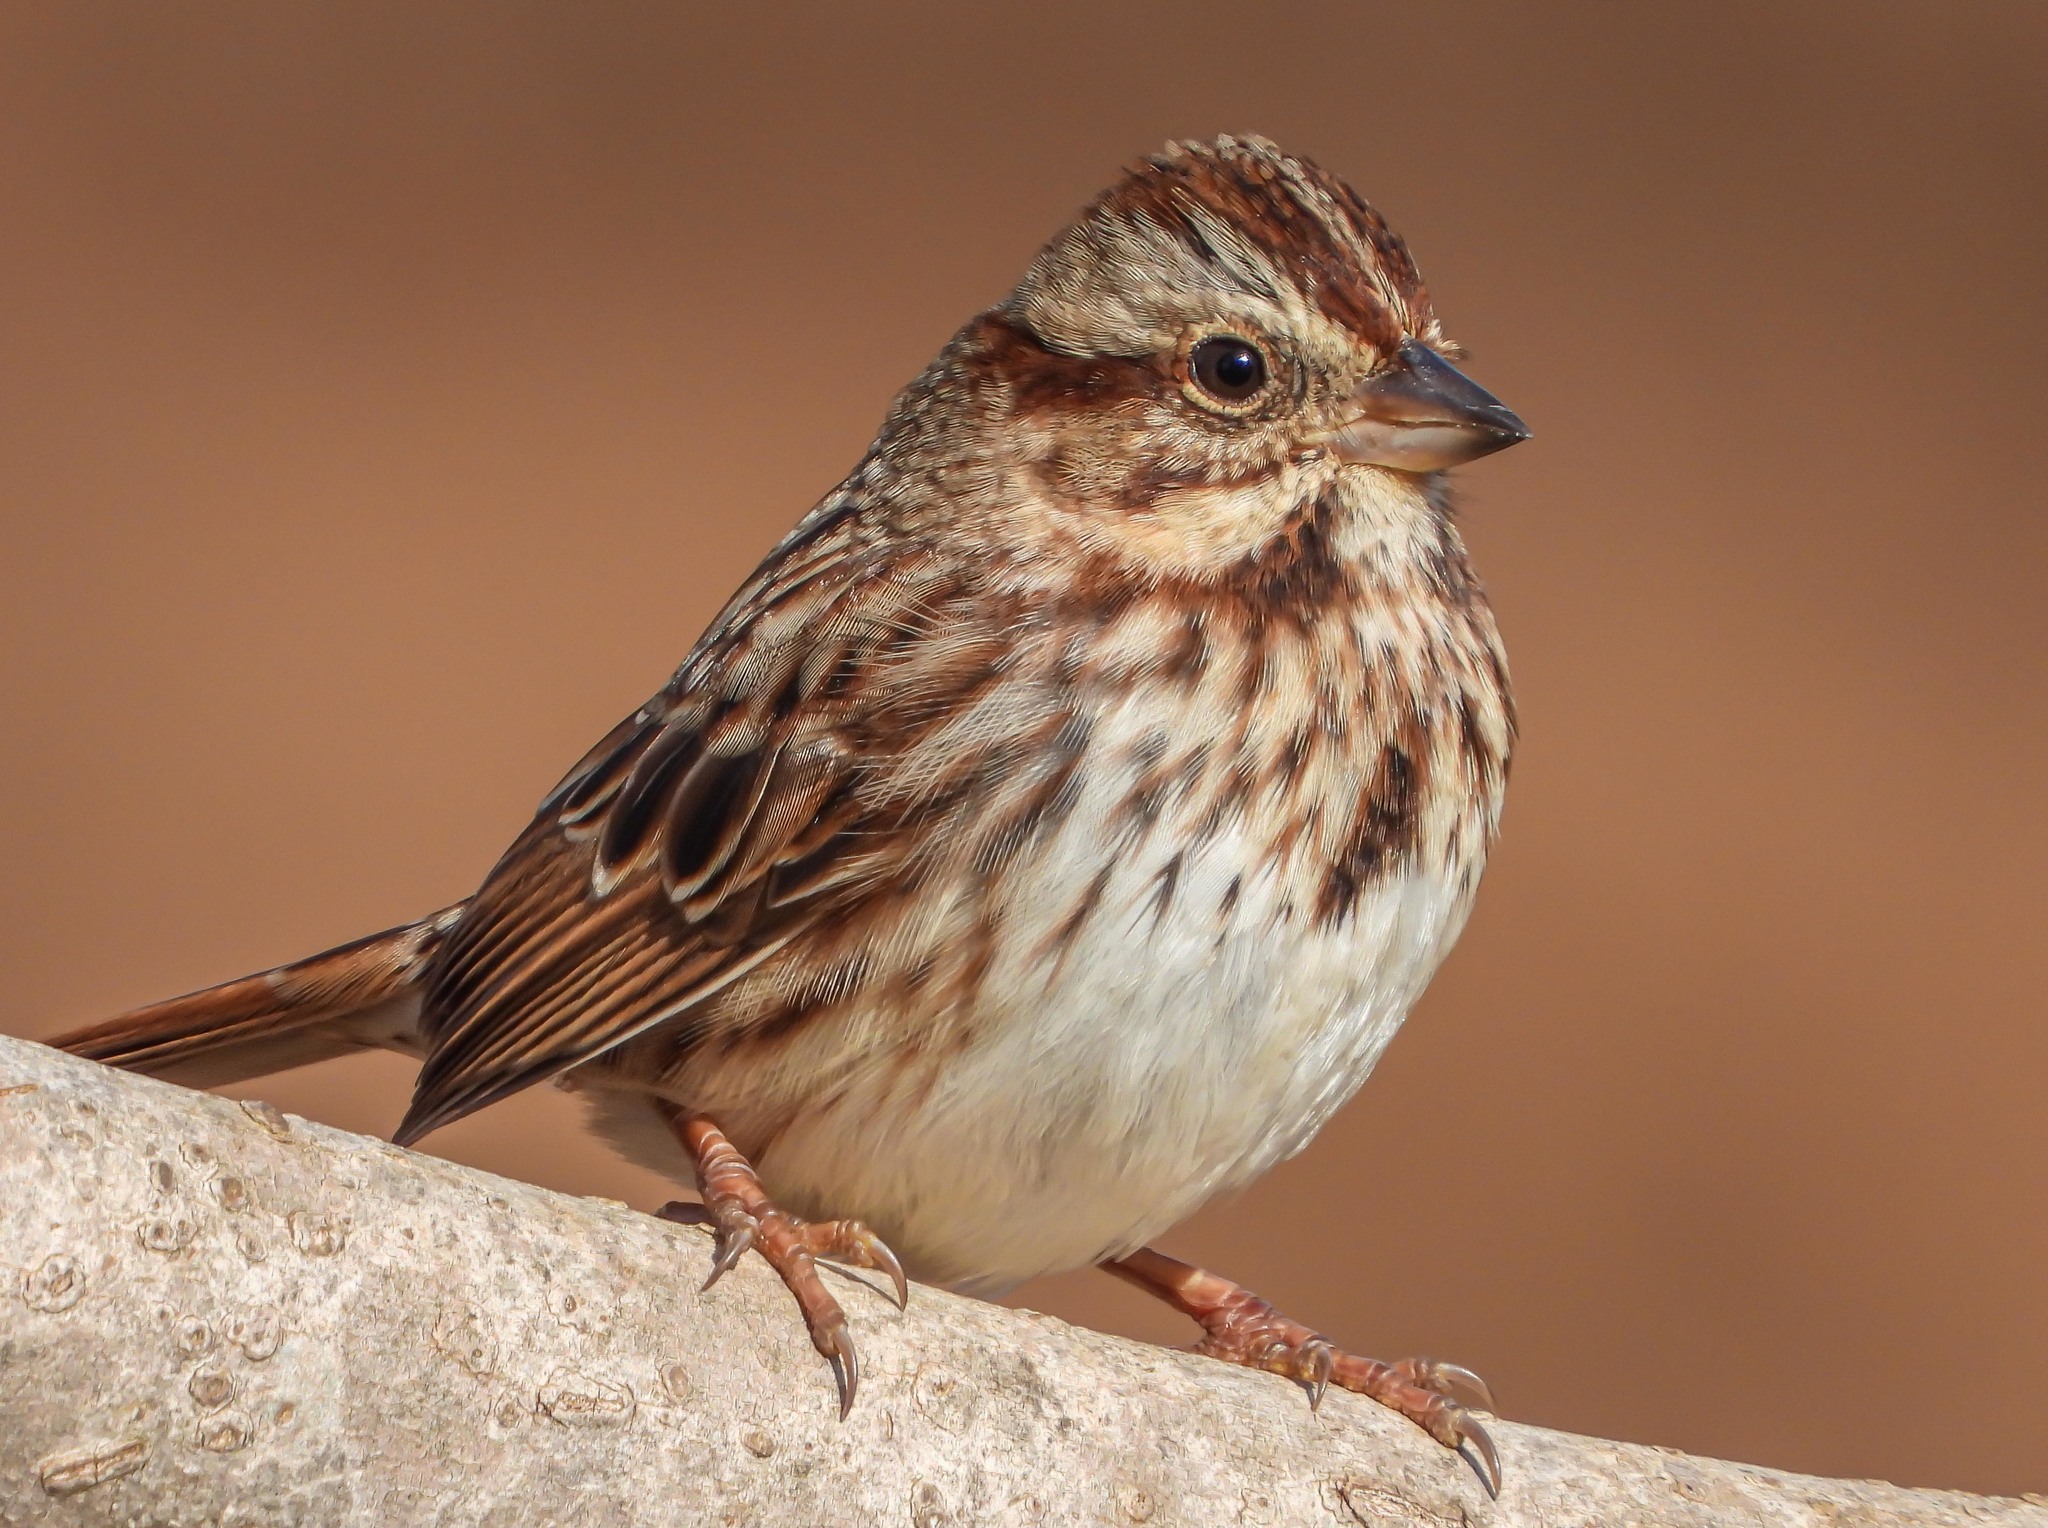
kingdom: Animalia
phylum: Chordata
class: Aves
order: Passeriformes
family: Passerellidae
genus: Melospiza
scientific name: Melospiza melodia
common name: Song sparrow
